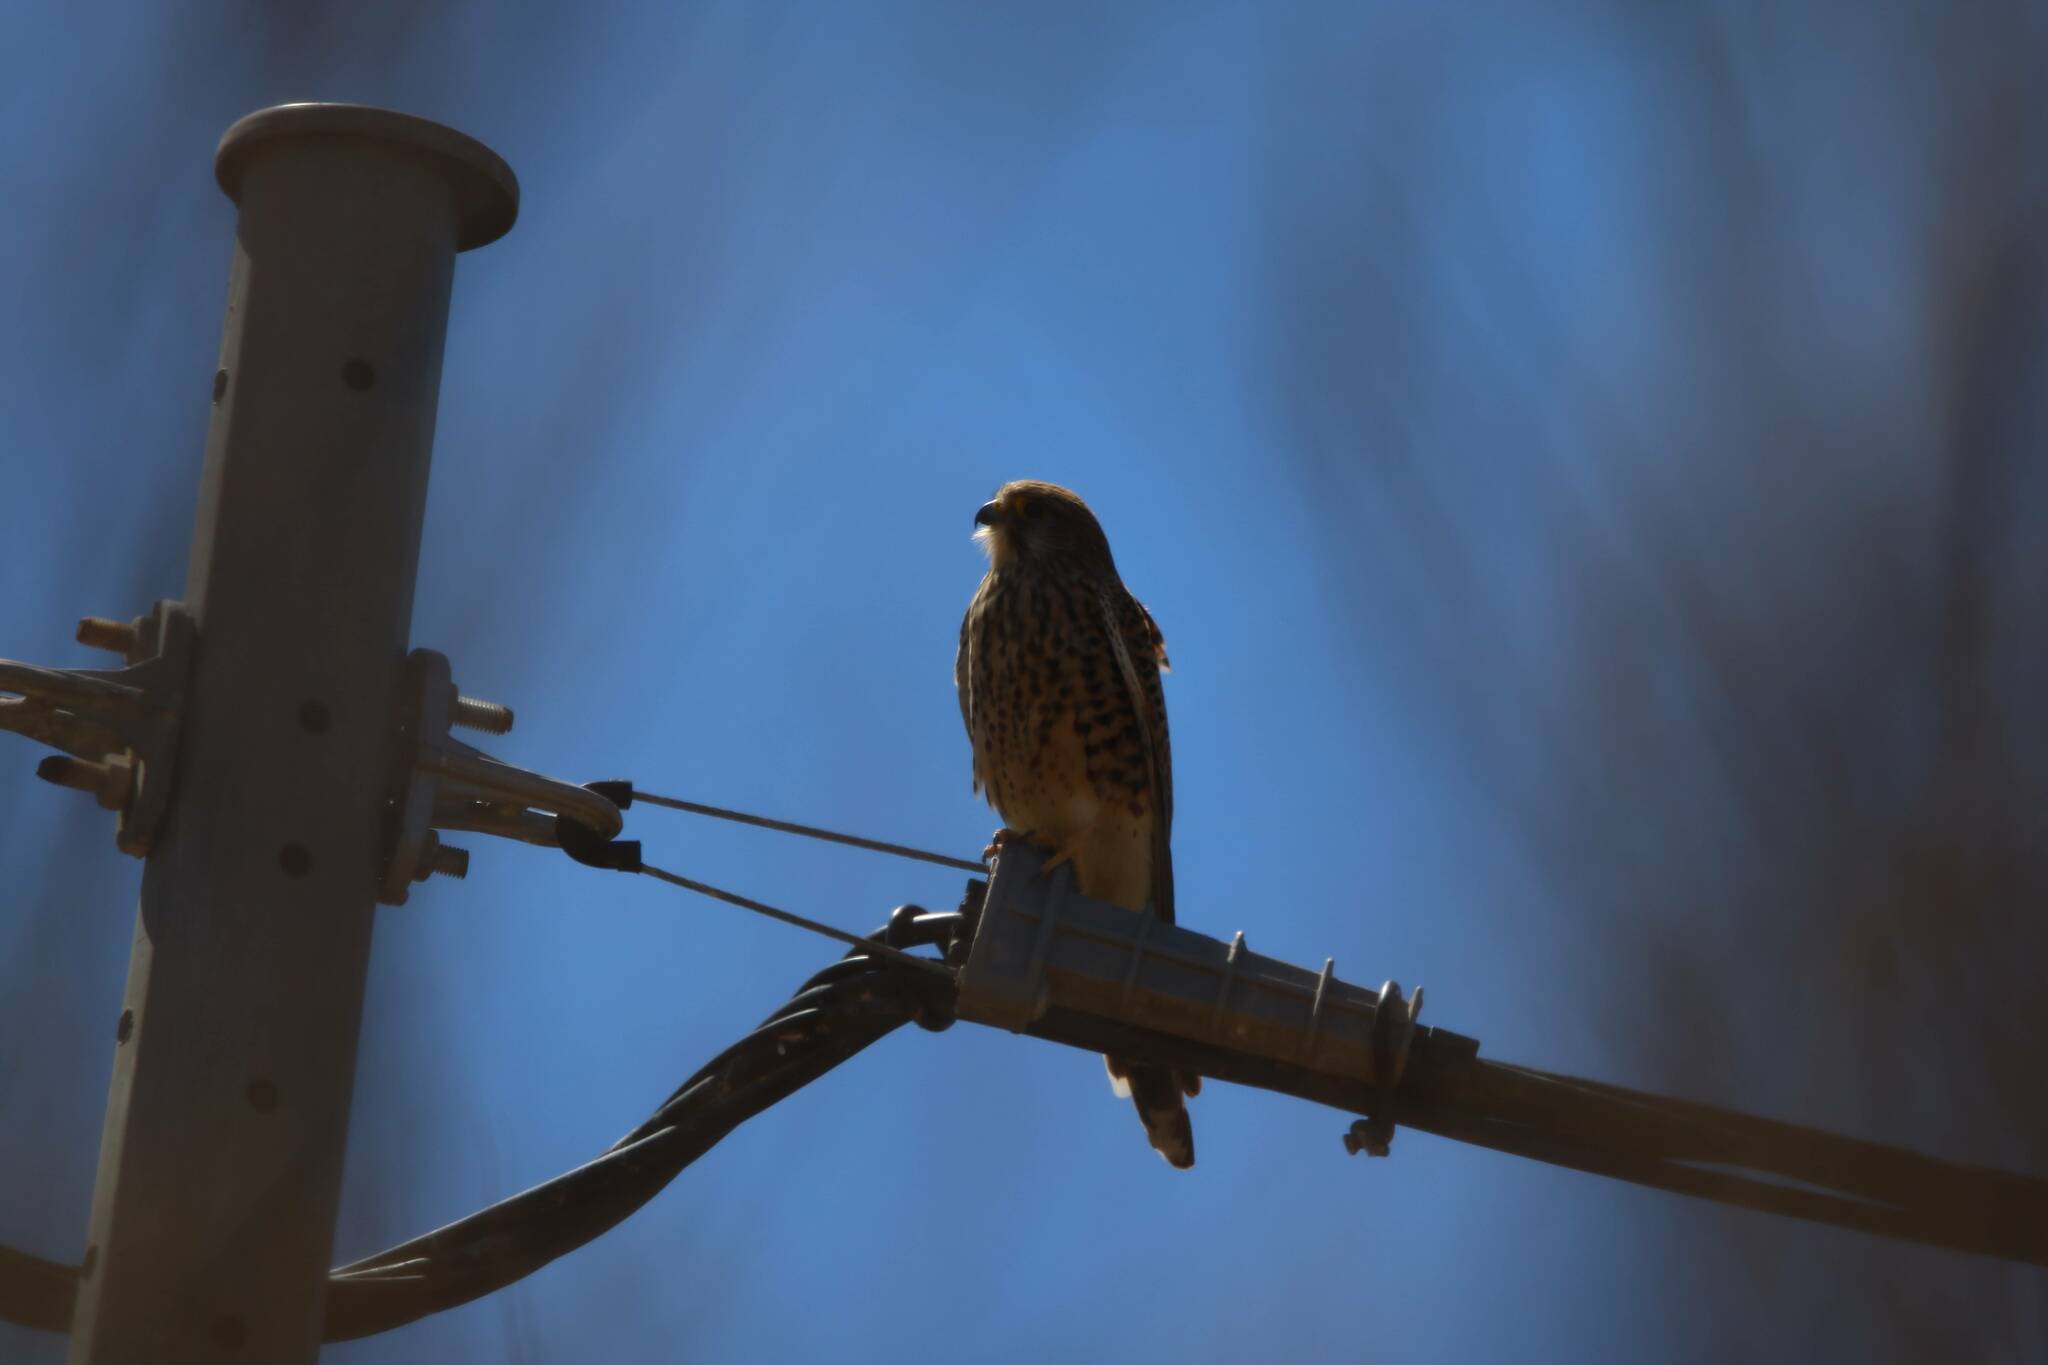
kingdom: Animalia
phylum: Chordata
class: Aves
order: Falconiformes
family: Falconidae
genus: Falco
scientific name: Falco tinnunculus
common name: Common kestrel
